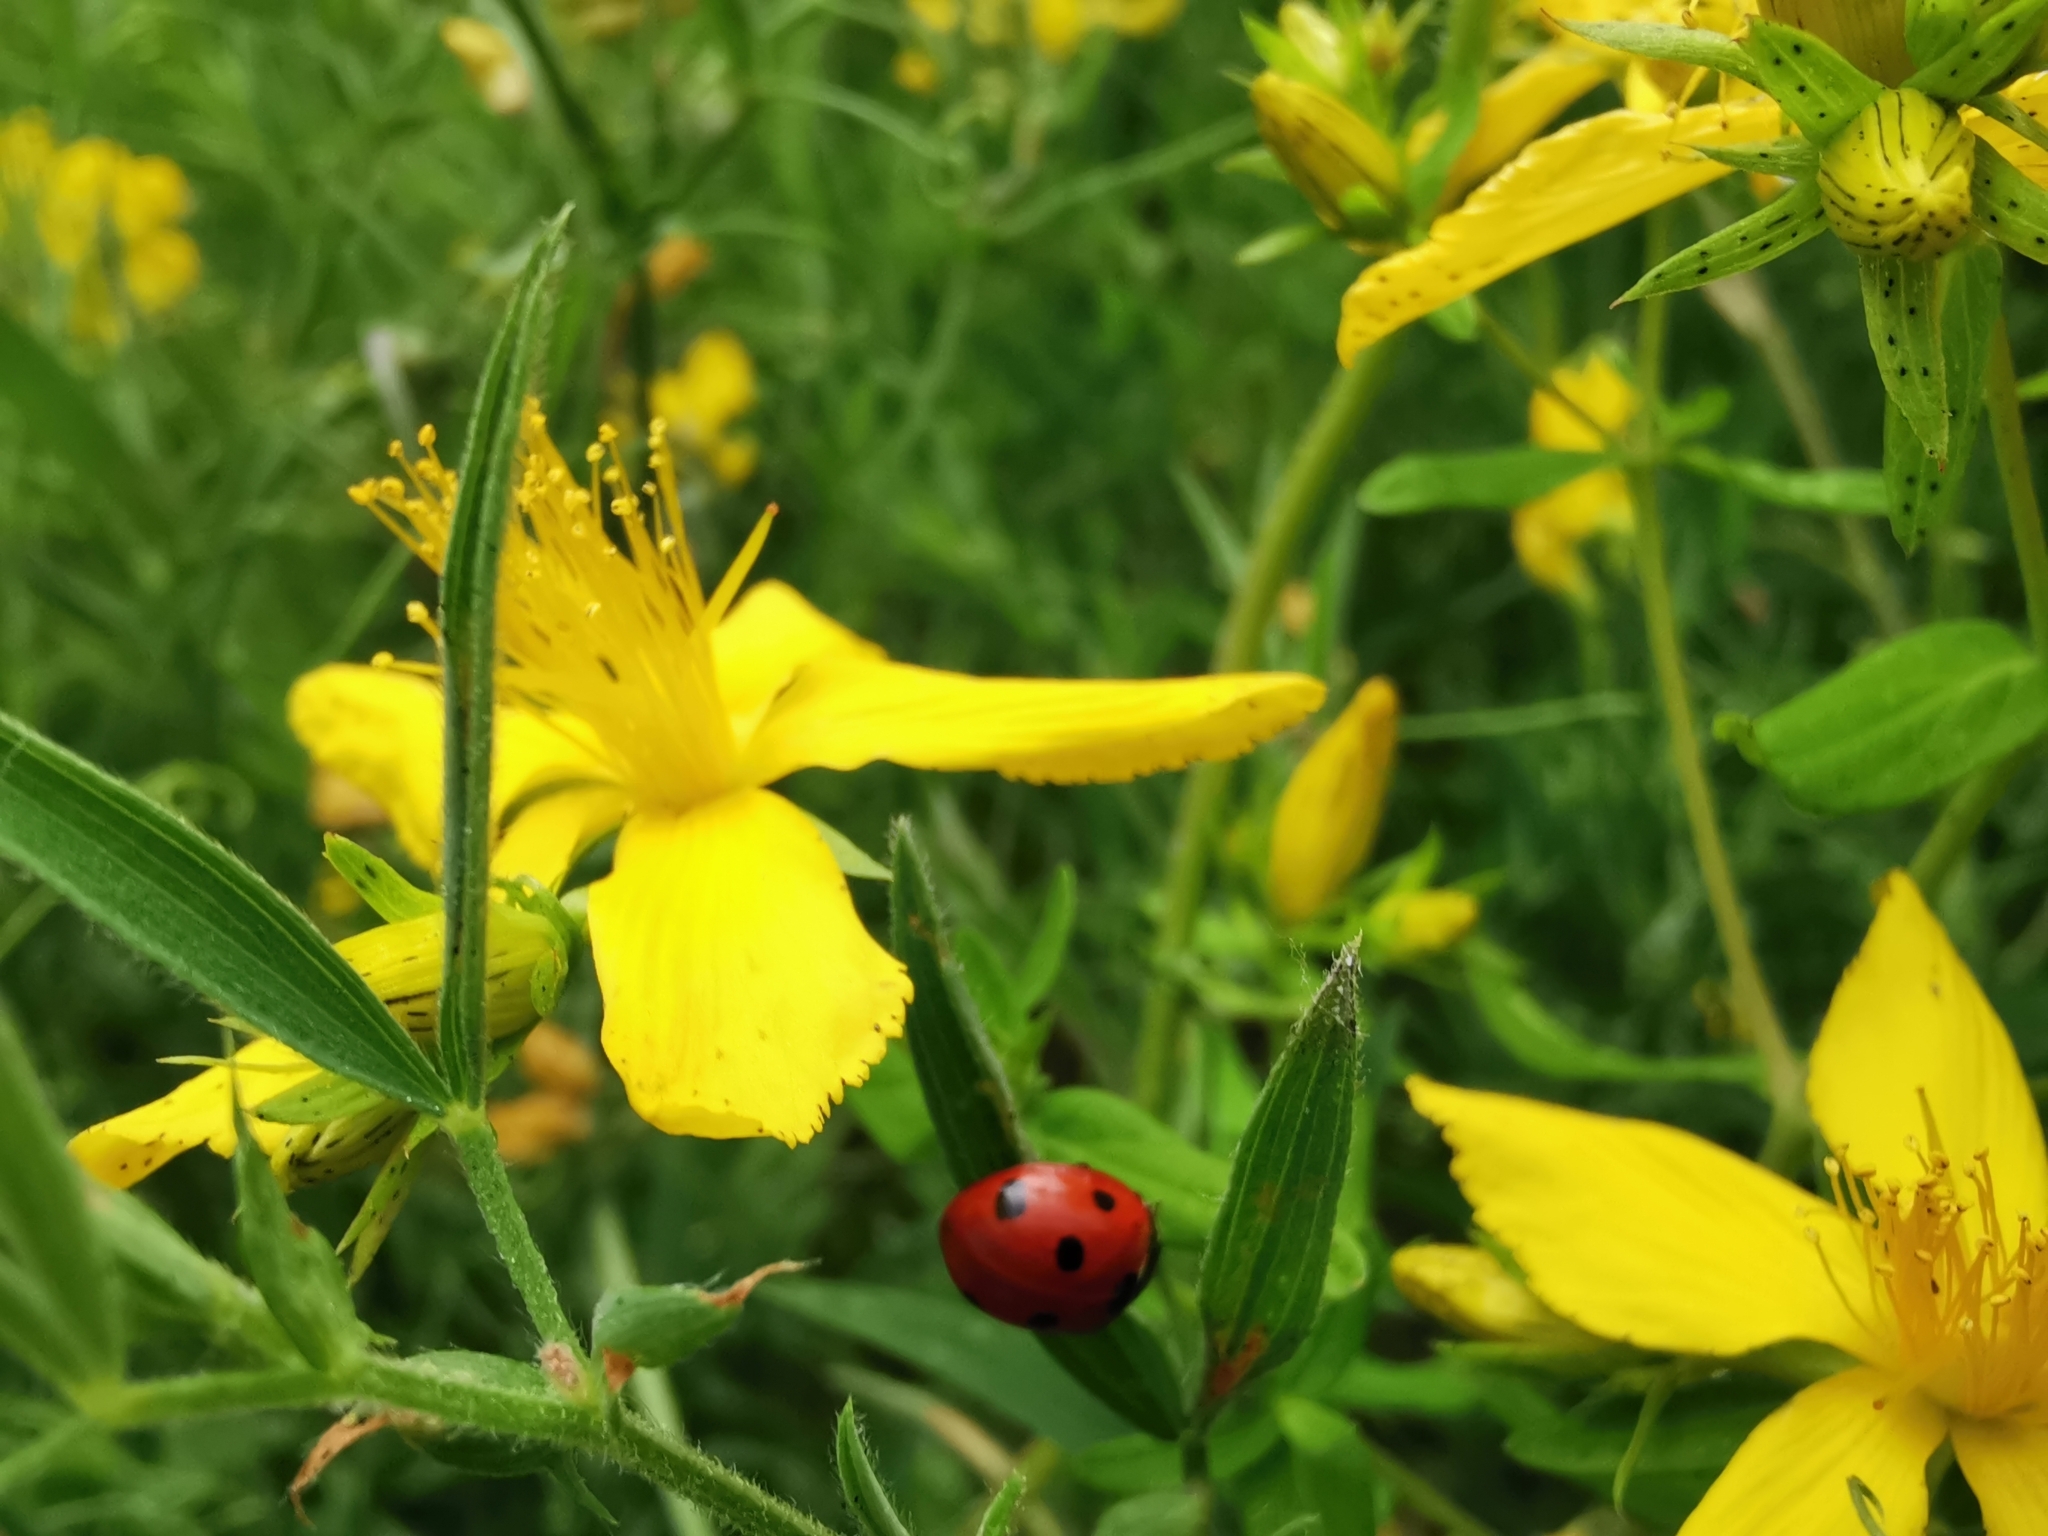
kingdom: Animalia
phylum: Arthropoda
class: Insecta
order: Coleoptera
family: Coccinellidae
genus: Coccinella
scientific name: Coccinella septempunctata
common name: Sevenspotted lady beetle
